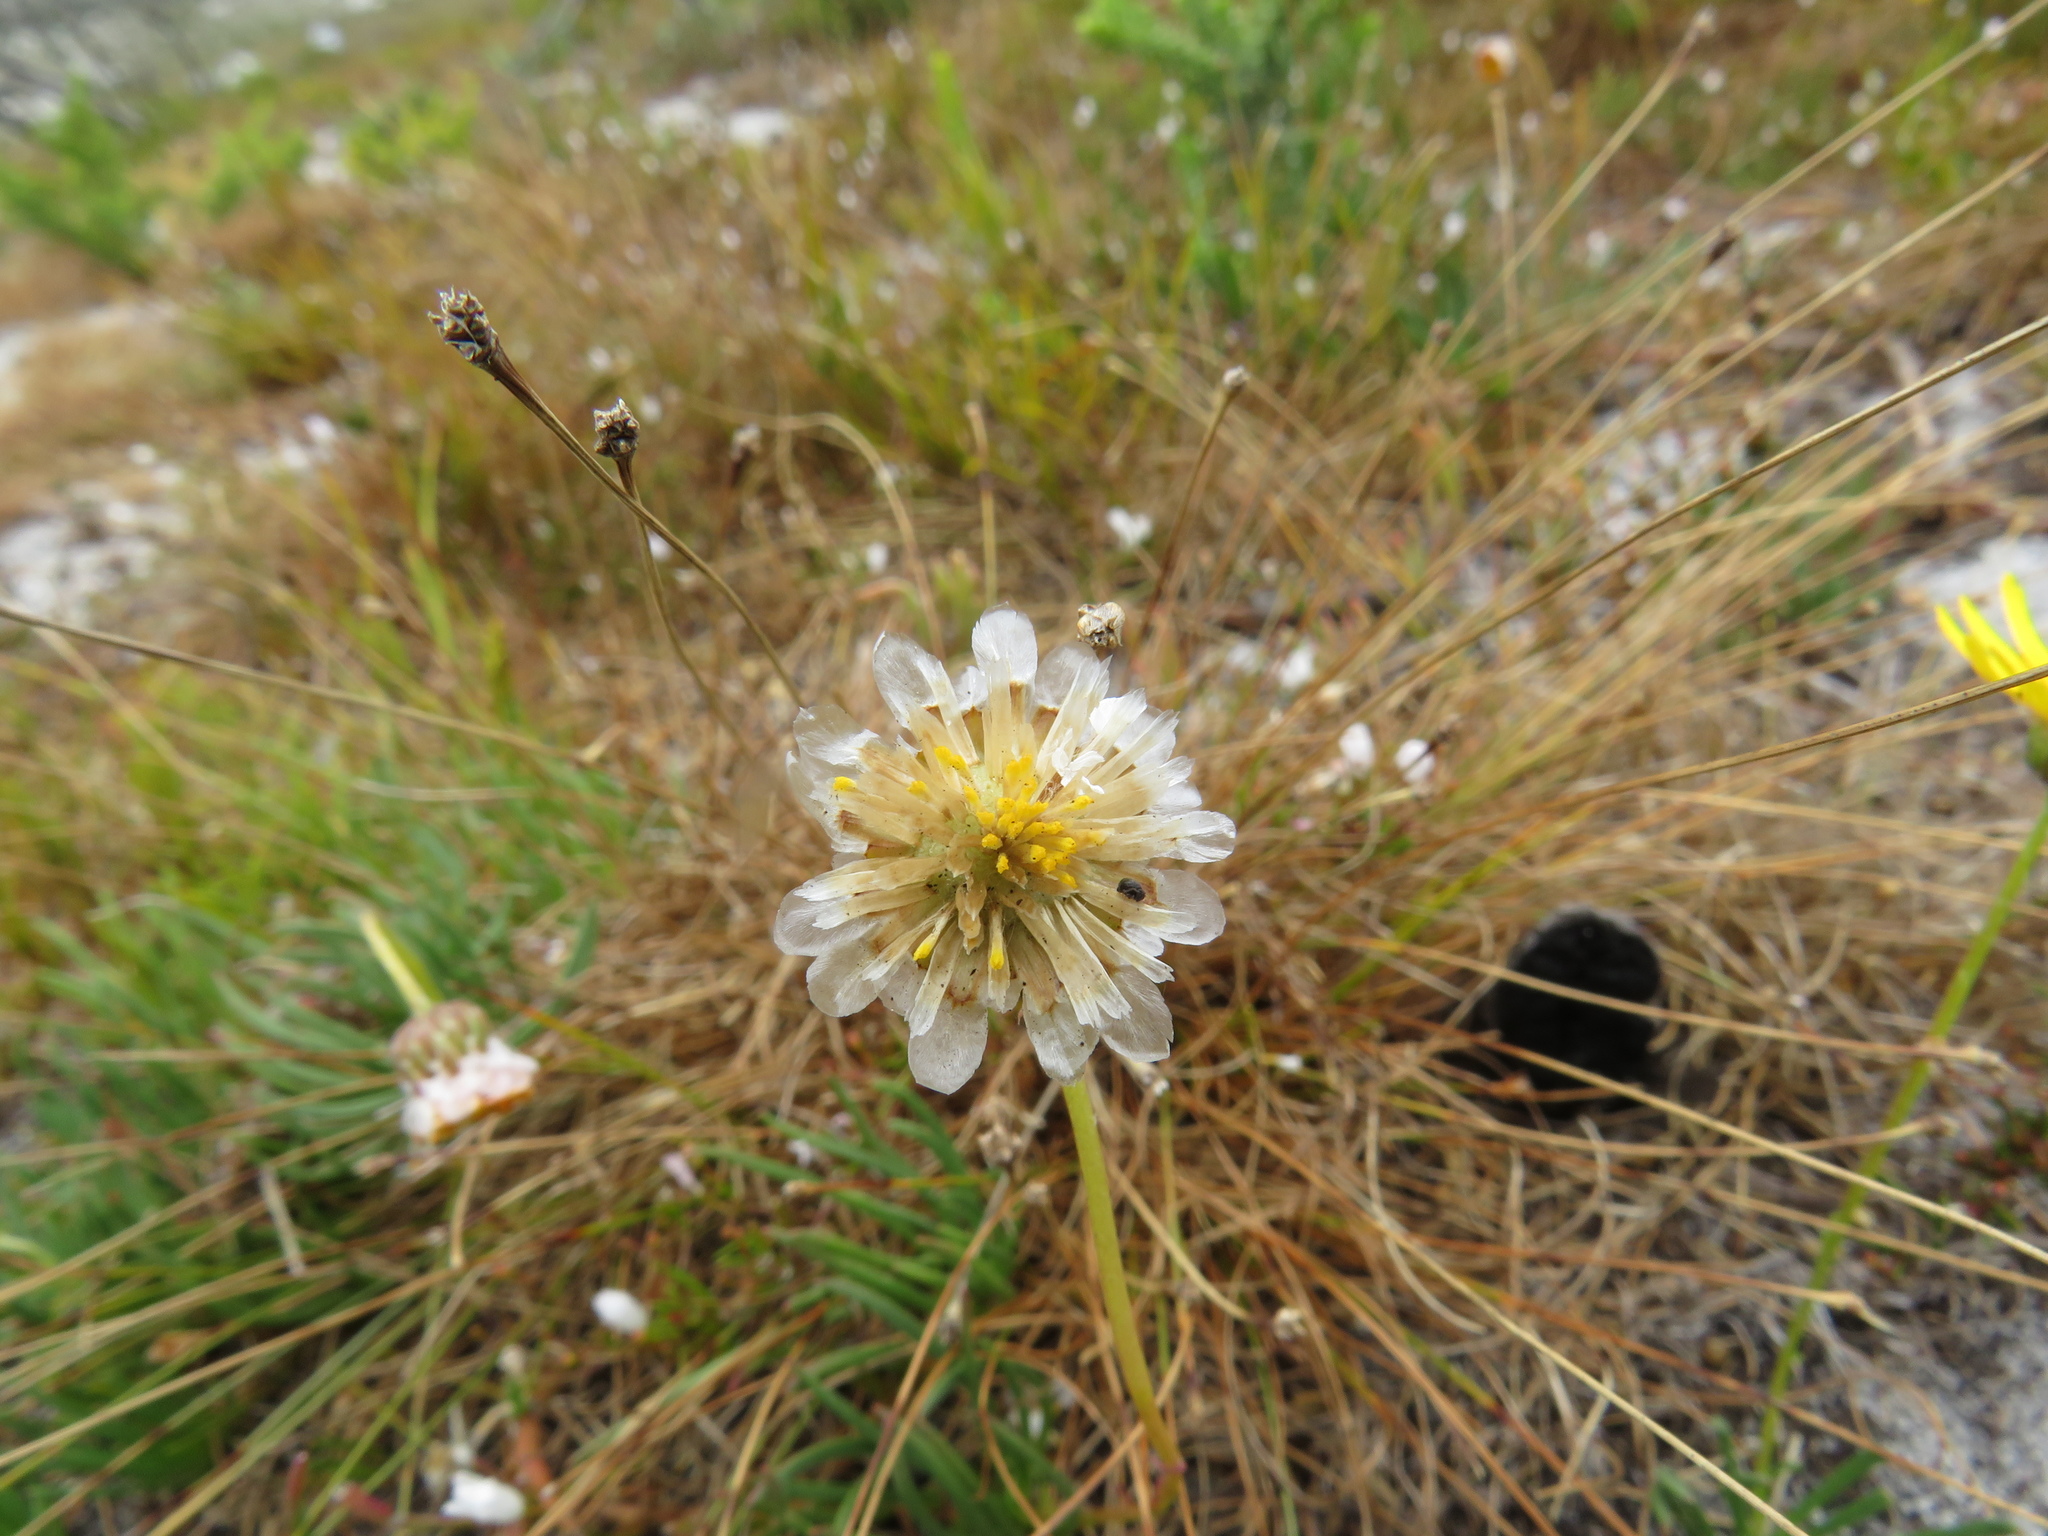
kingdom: Plantae
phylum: Tracheophyta
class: Magnoliopsida
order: Asterales
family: Asteraceae
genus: Ursinia
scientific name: Ursinia tenuifolia
